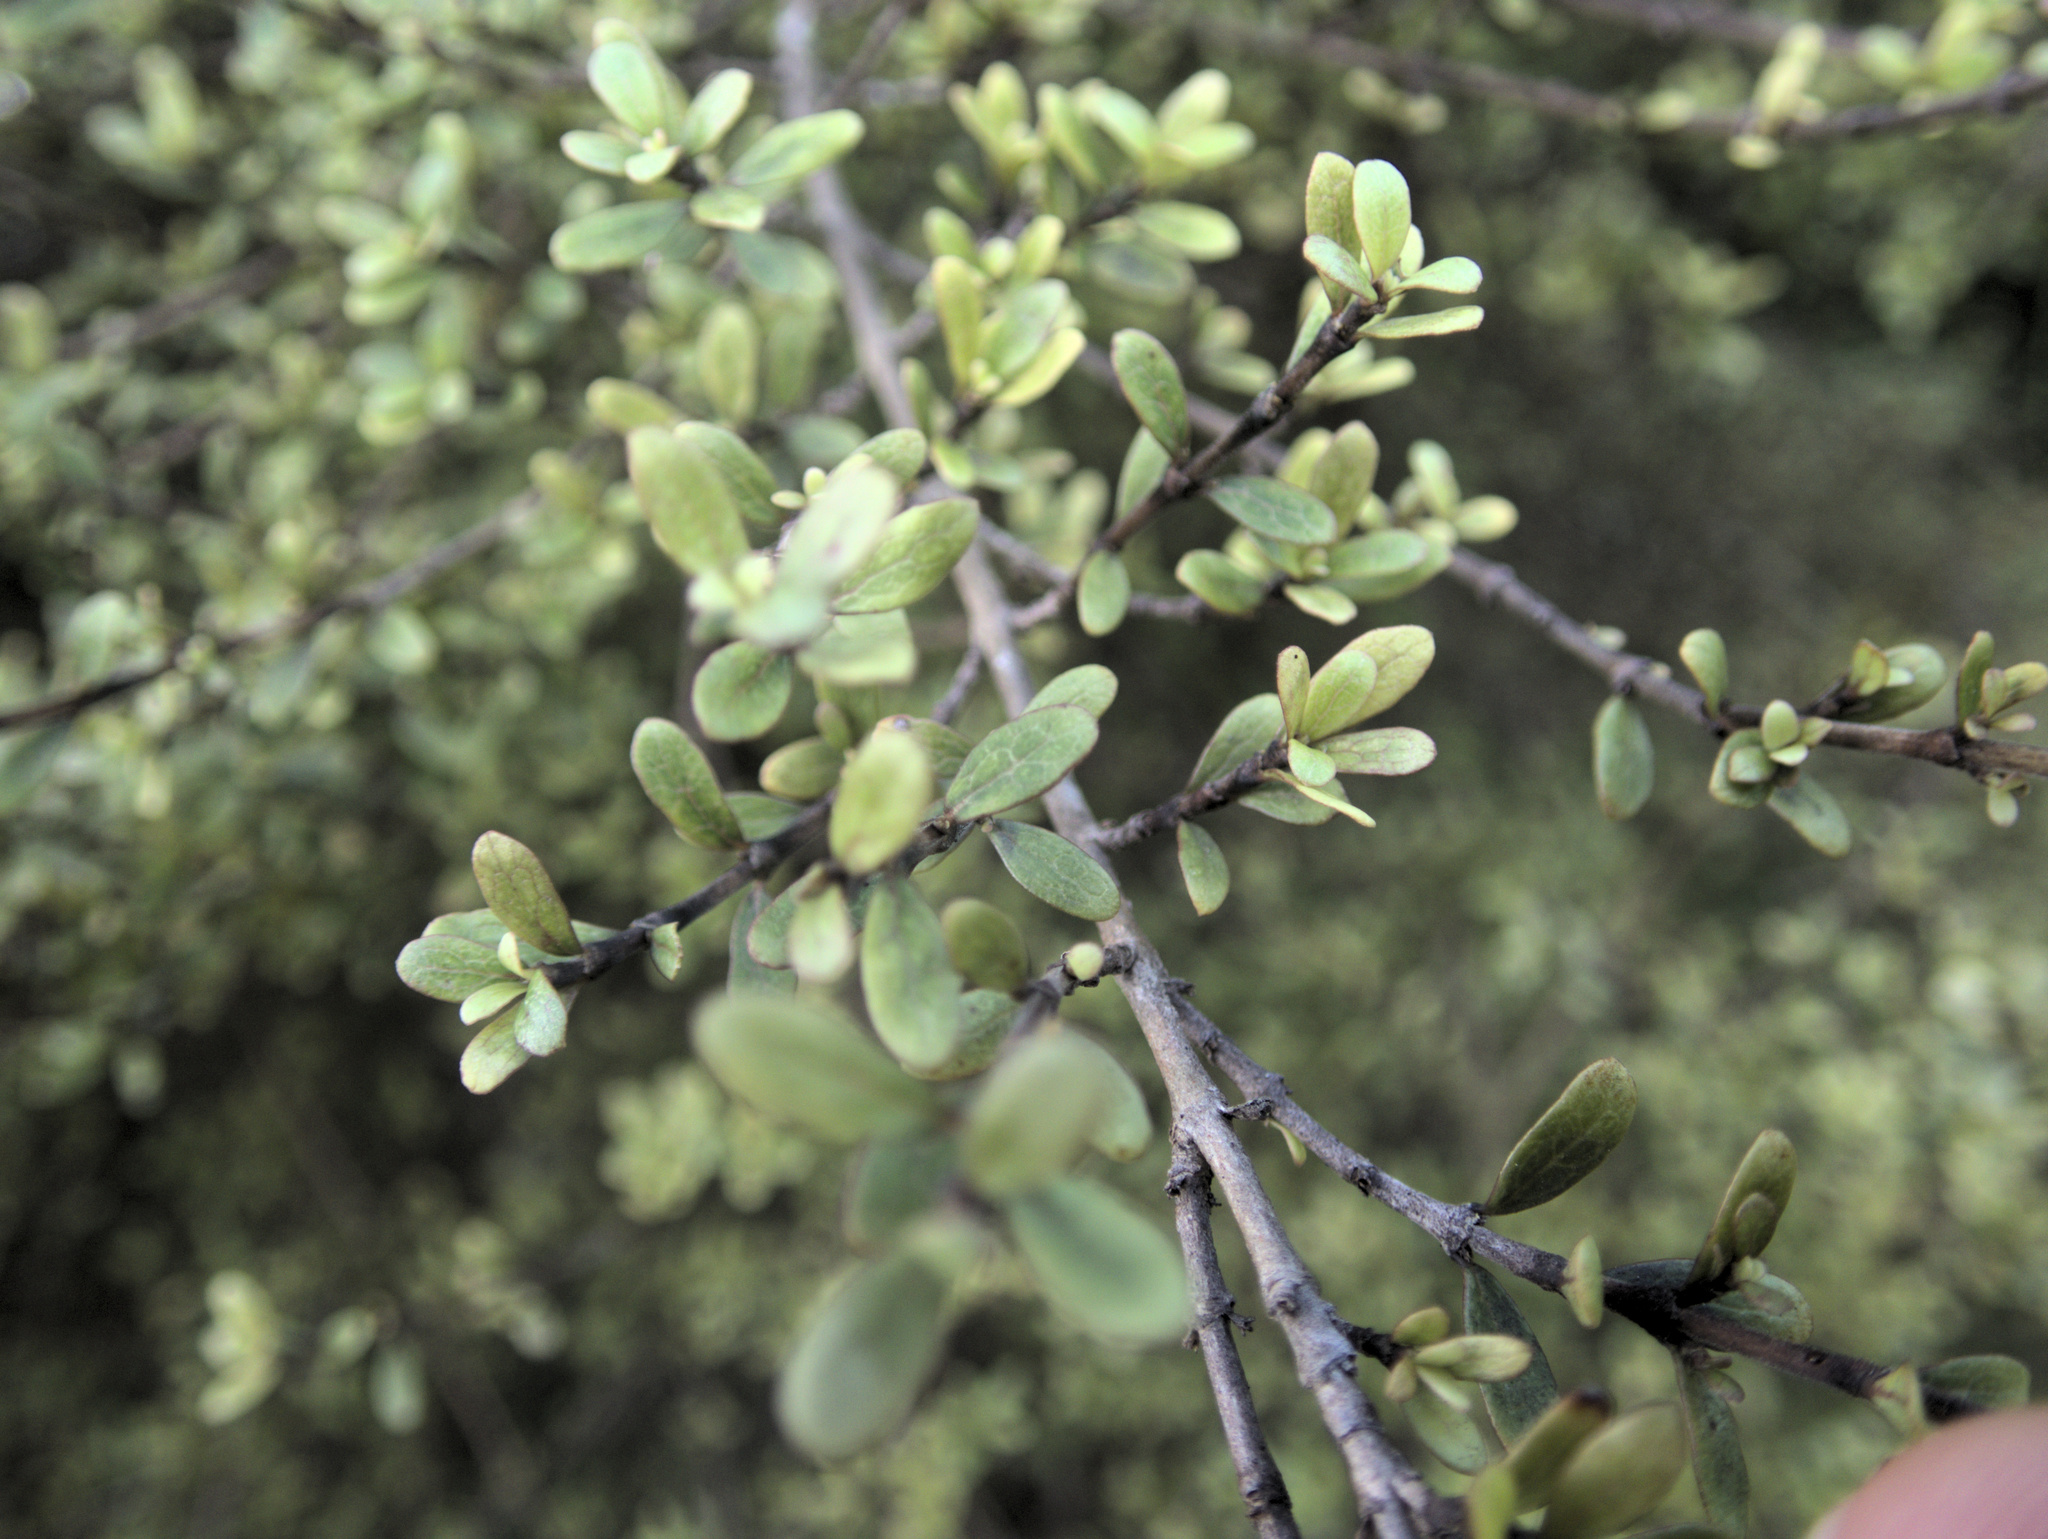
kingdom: Plantae
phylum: Tracheophyta
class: Magnoliopsida
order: Gentianales
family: Rubiaceae
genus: Coprosma
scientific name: Coprosma rigida
